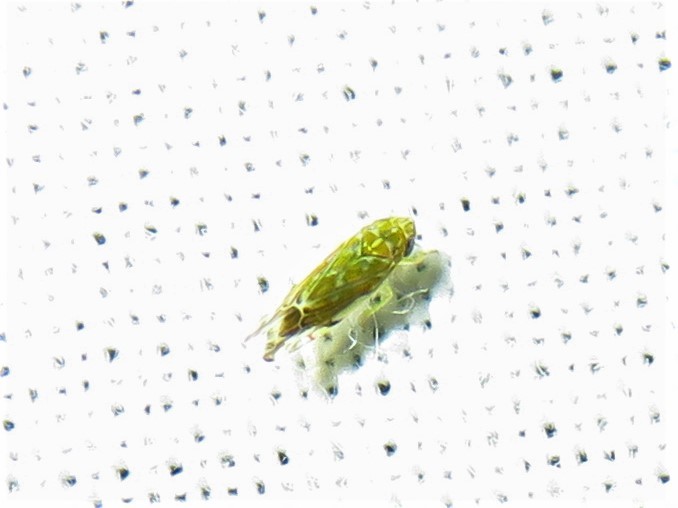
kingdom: Animalia
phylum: Arthropoda
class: Insecta
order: Hemiptera
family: Cicadellidae
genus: Erasmoneura
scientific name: Erasmoneura vulnerata
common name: The wounded leafhopper
